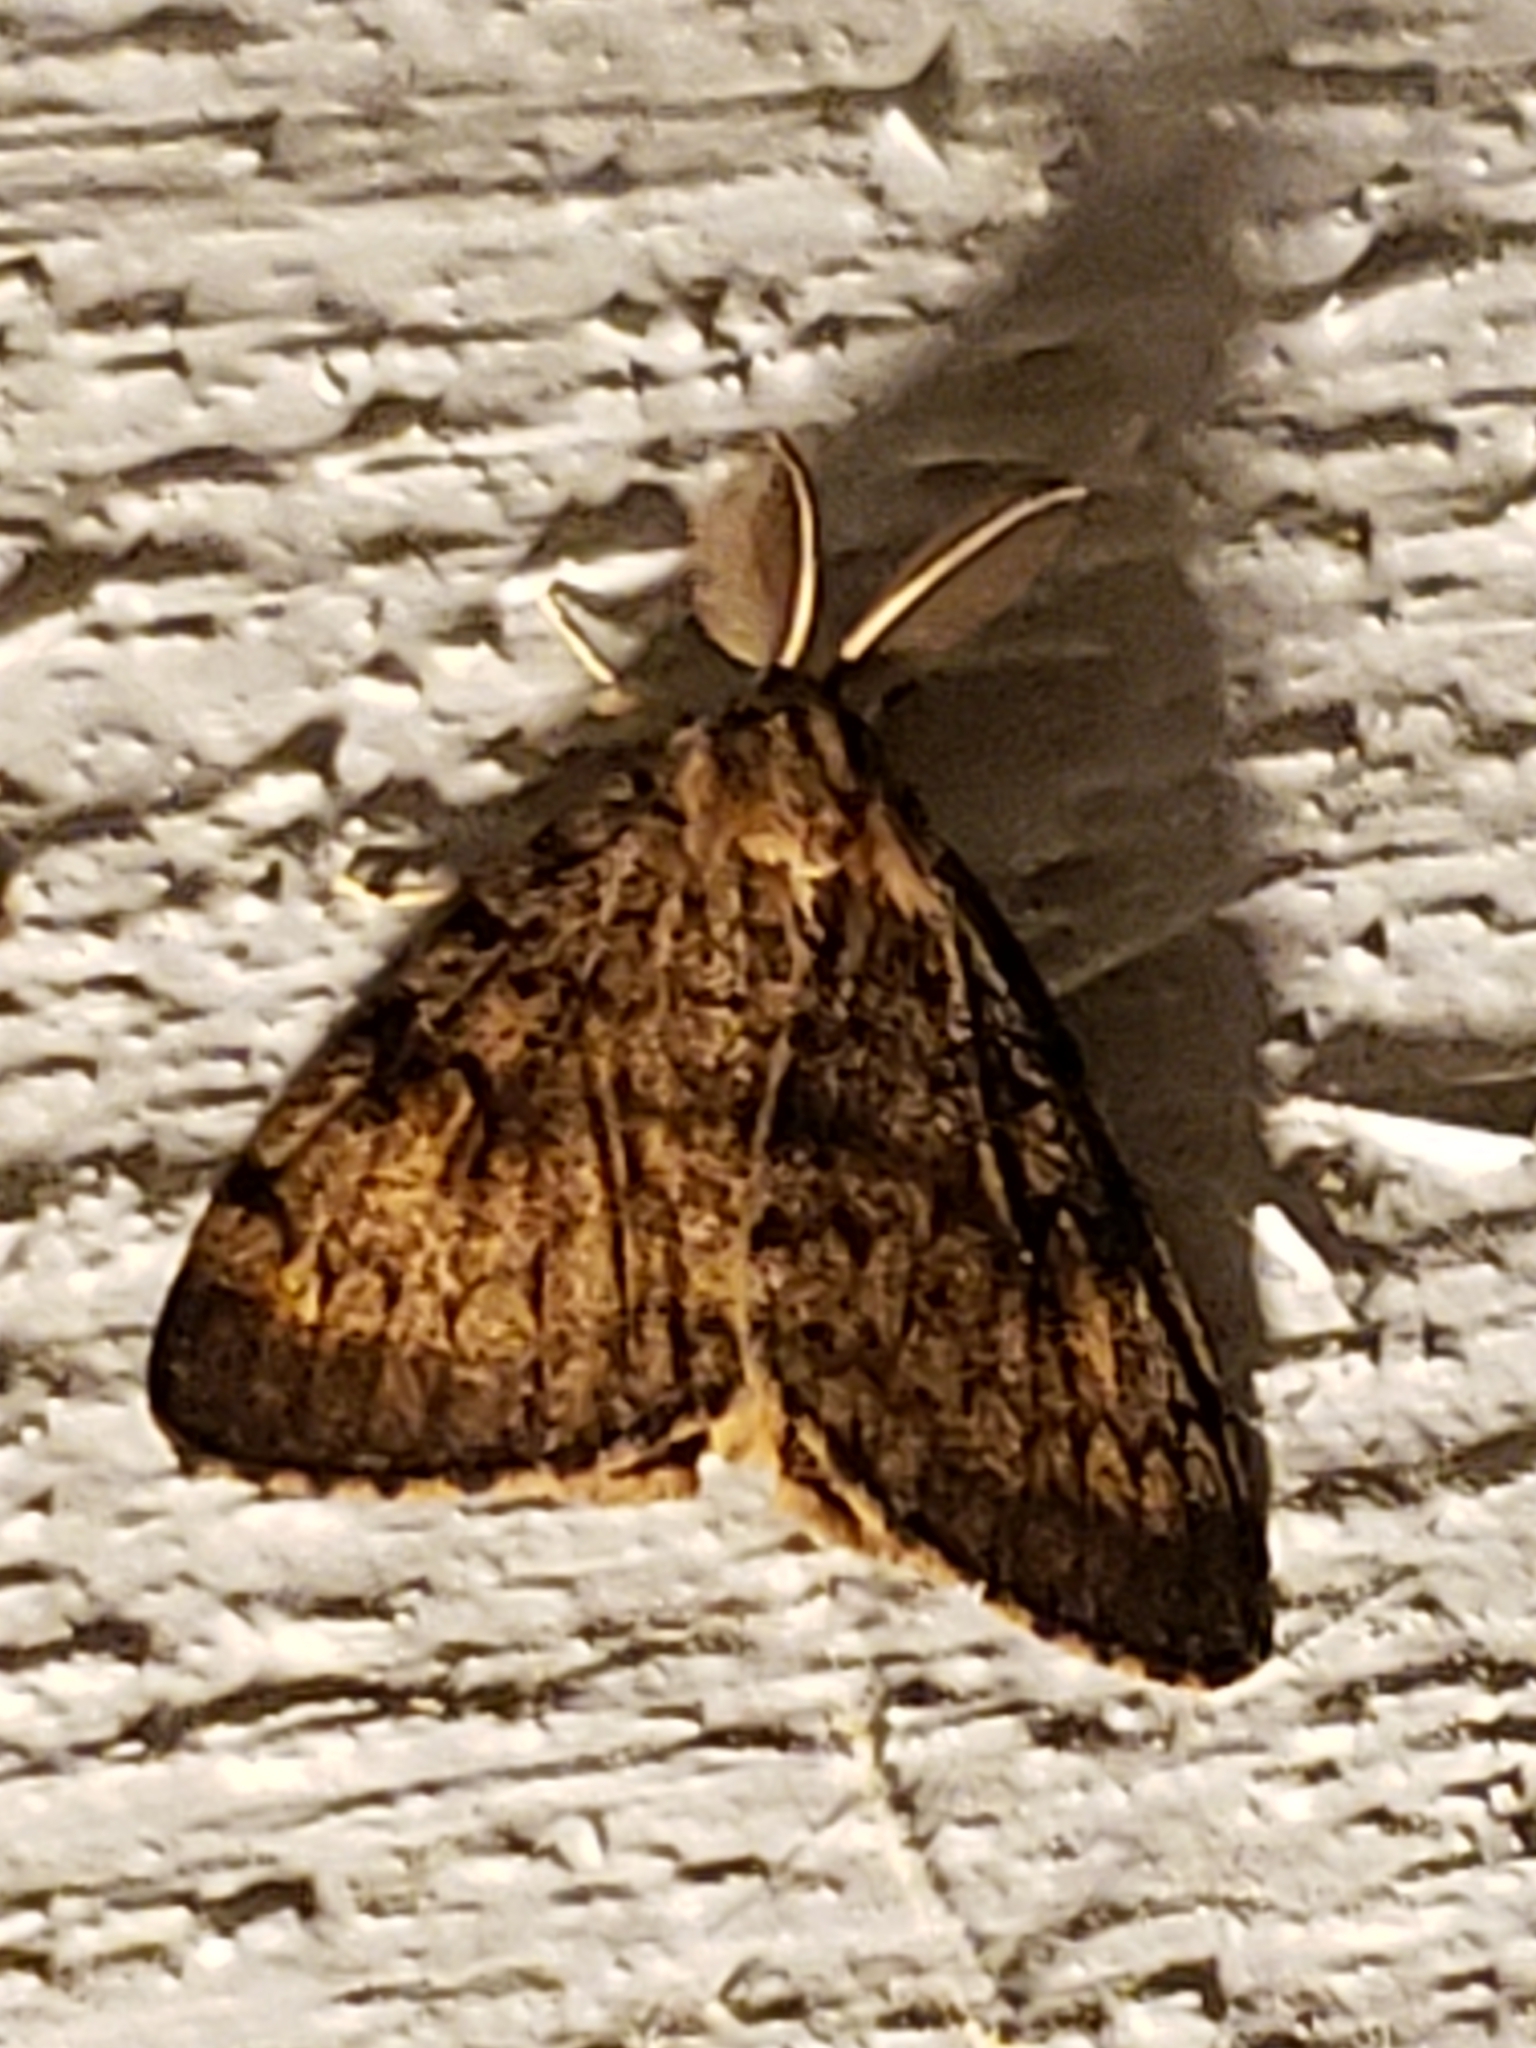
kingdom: Animalia
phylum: Arthropoda
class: Insecta
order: Lepidoptera
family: Erebidae
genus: Lymantria
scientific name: Lymantria dispar
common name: Gypsy moth
